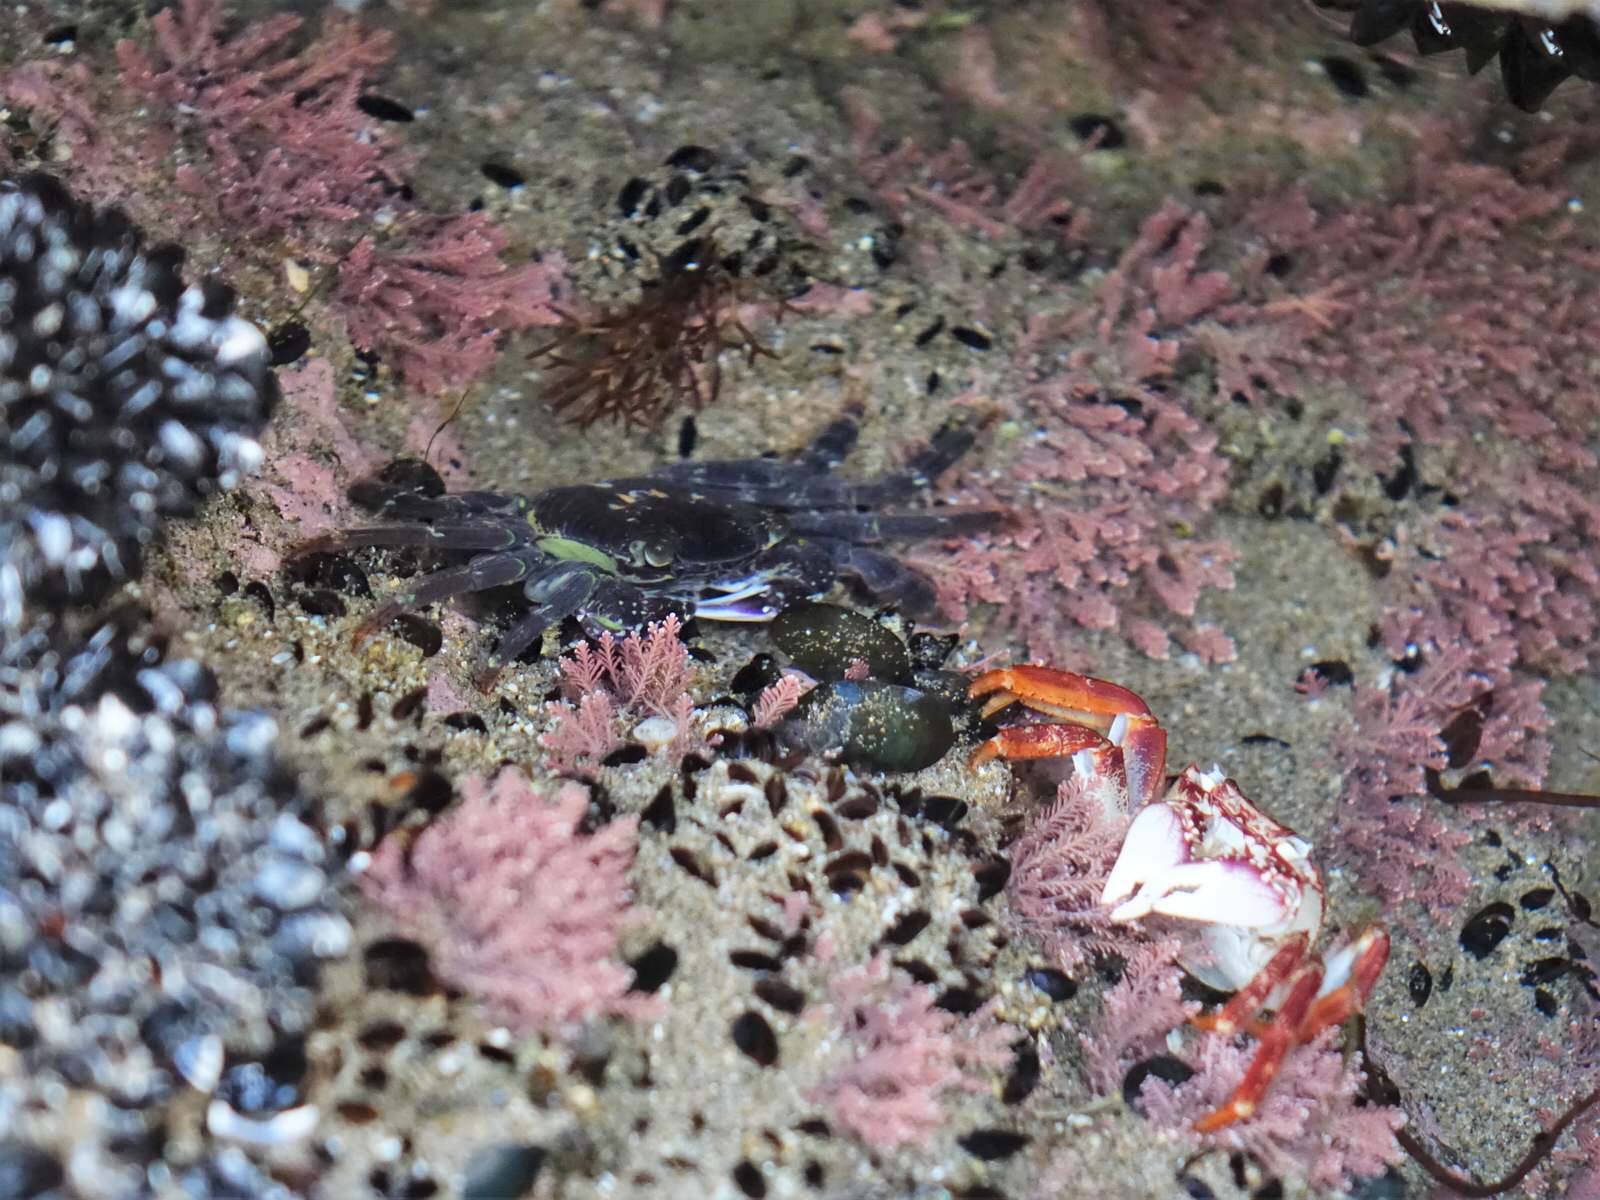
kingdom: Animalia
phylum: Arthropoda
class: Malacostraca
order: Decapoda
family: Grapsidae
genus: Leptograpsus
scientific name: Leptograpsus variegatus
